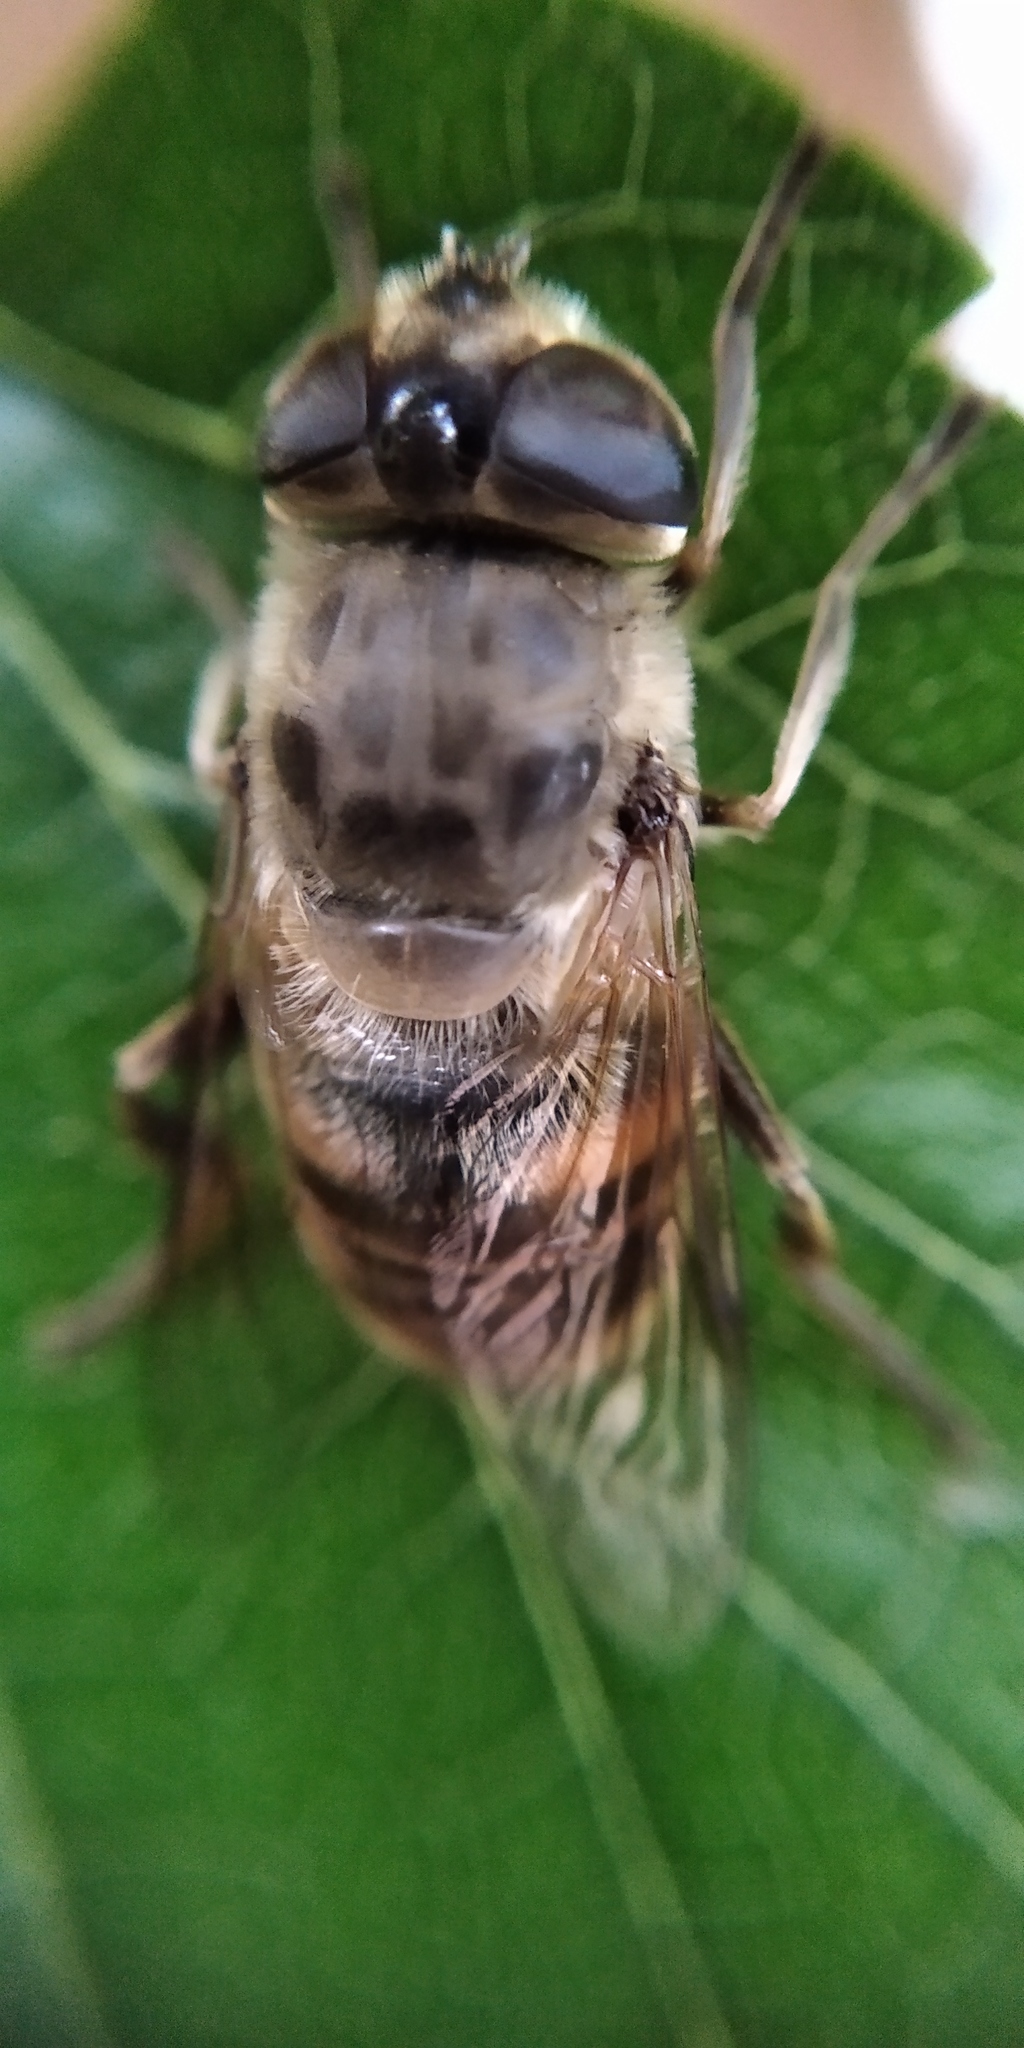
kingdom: Animalia
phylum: Arthropoda
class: Insecta
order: Diptera
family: Syrphidae
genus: Eristalis
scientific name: Eristalis tenax
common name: Drone fly
